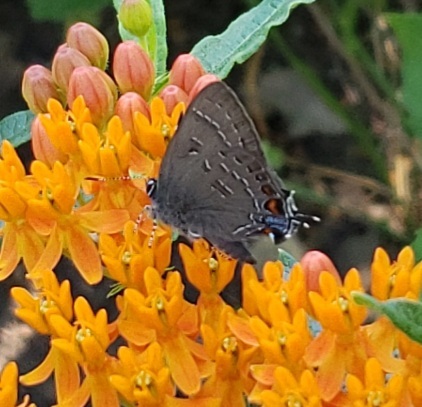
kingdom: Animalia
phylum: Arthropoda
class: Insecta
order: Lepidoptera
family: Lycaenidae
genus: Satyrium
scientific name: Satyrium calanus
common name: Banded hairstreak
